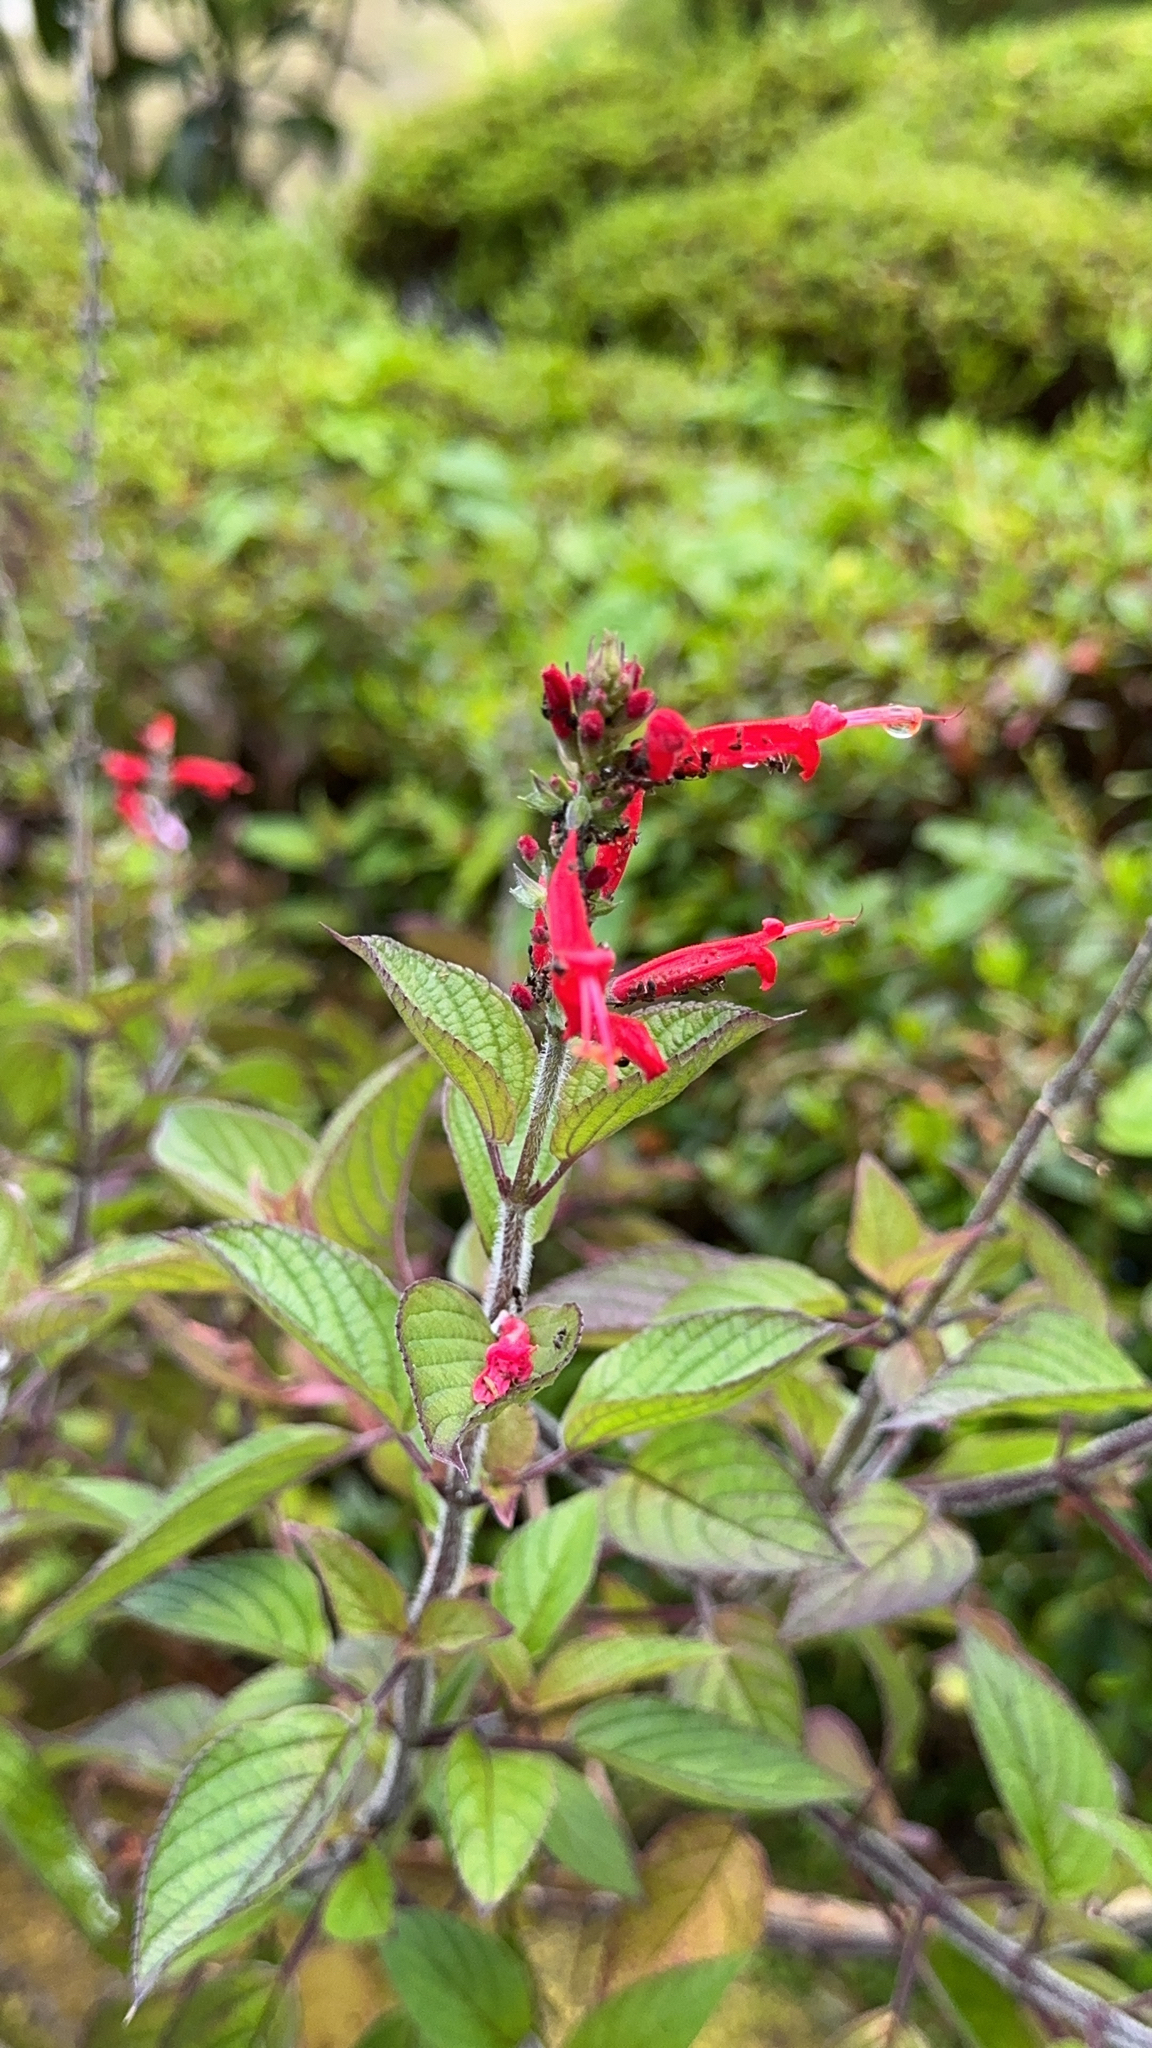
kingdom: Plantae
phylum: Tracheophyta
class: Magnoliopsida
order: Lamiales
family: Lamiaceae
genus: Salvia
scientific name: Salvia elegans
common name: Pineapple sage
